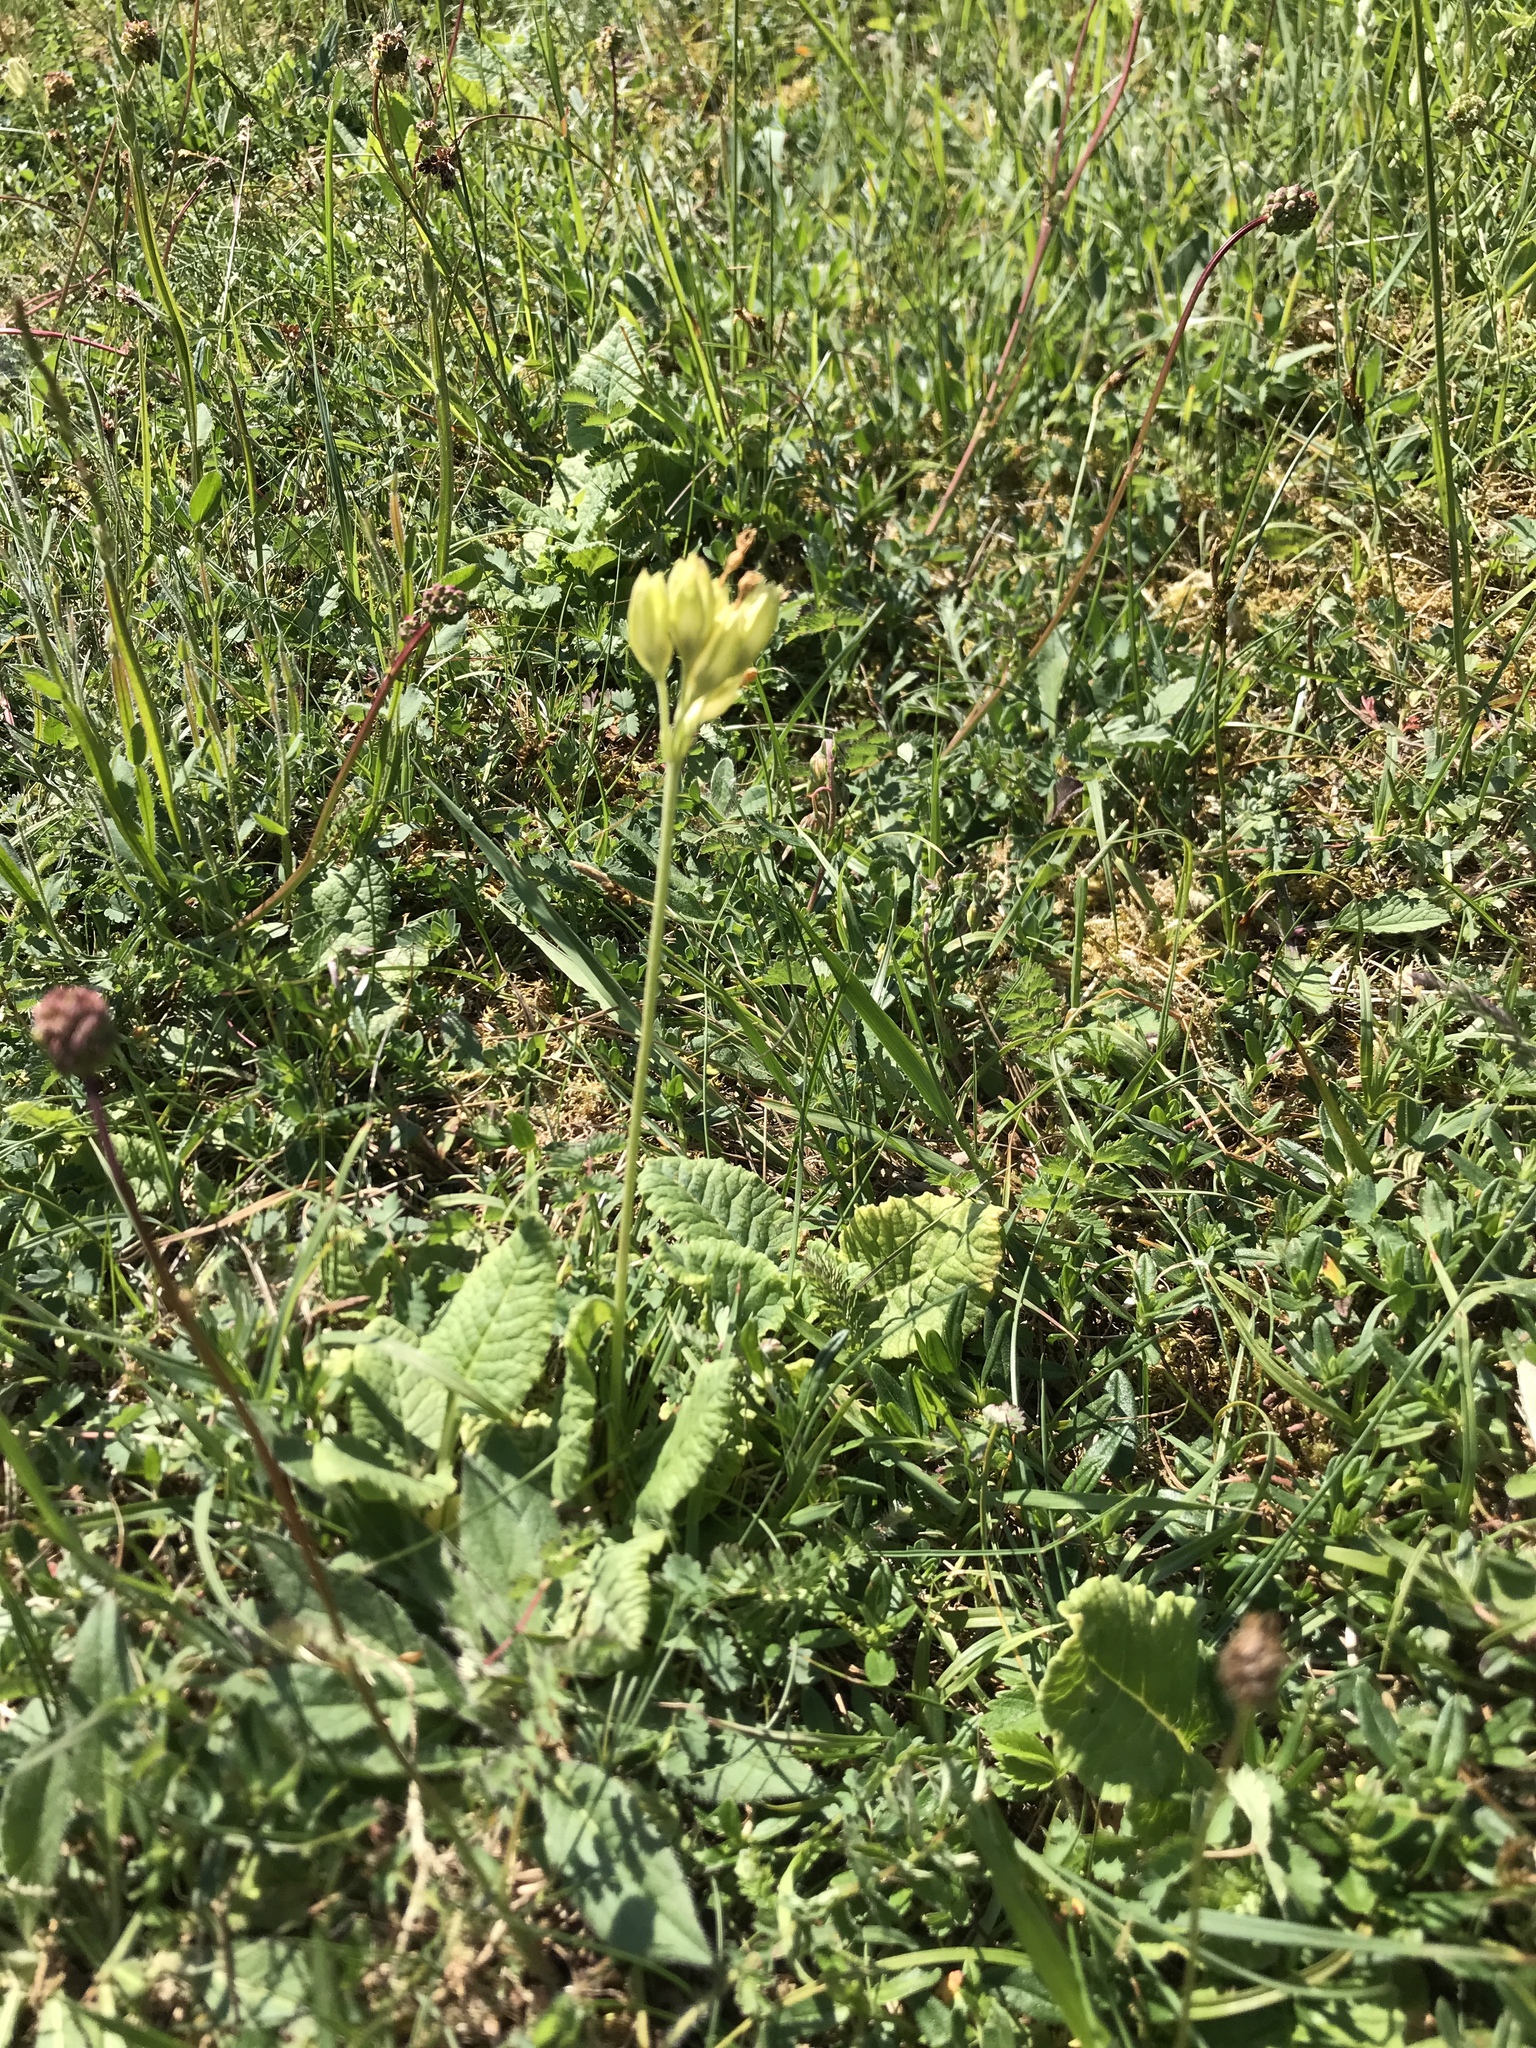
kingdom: Plantae
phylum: Tracheophyta
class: Magnoliopsida
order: Ericales
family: Primulaceae
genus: Primula
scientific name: Primula veris
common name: Cowslip
